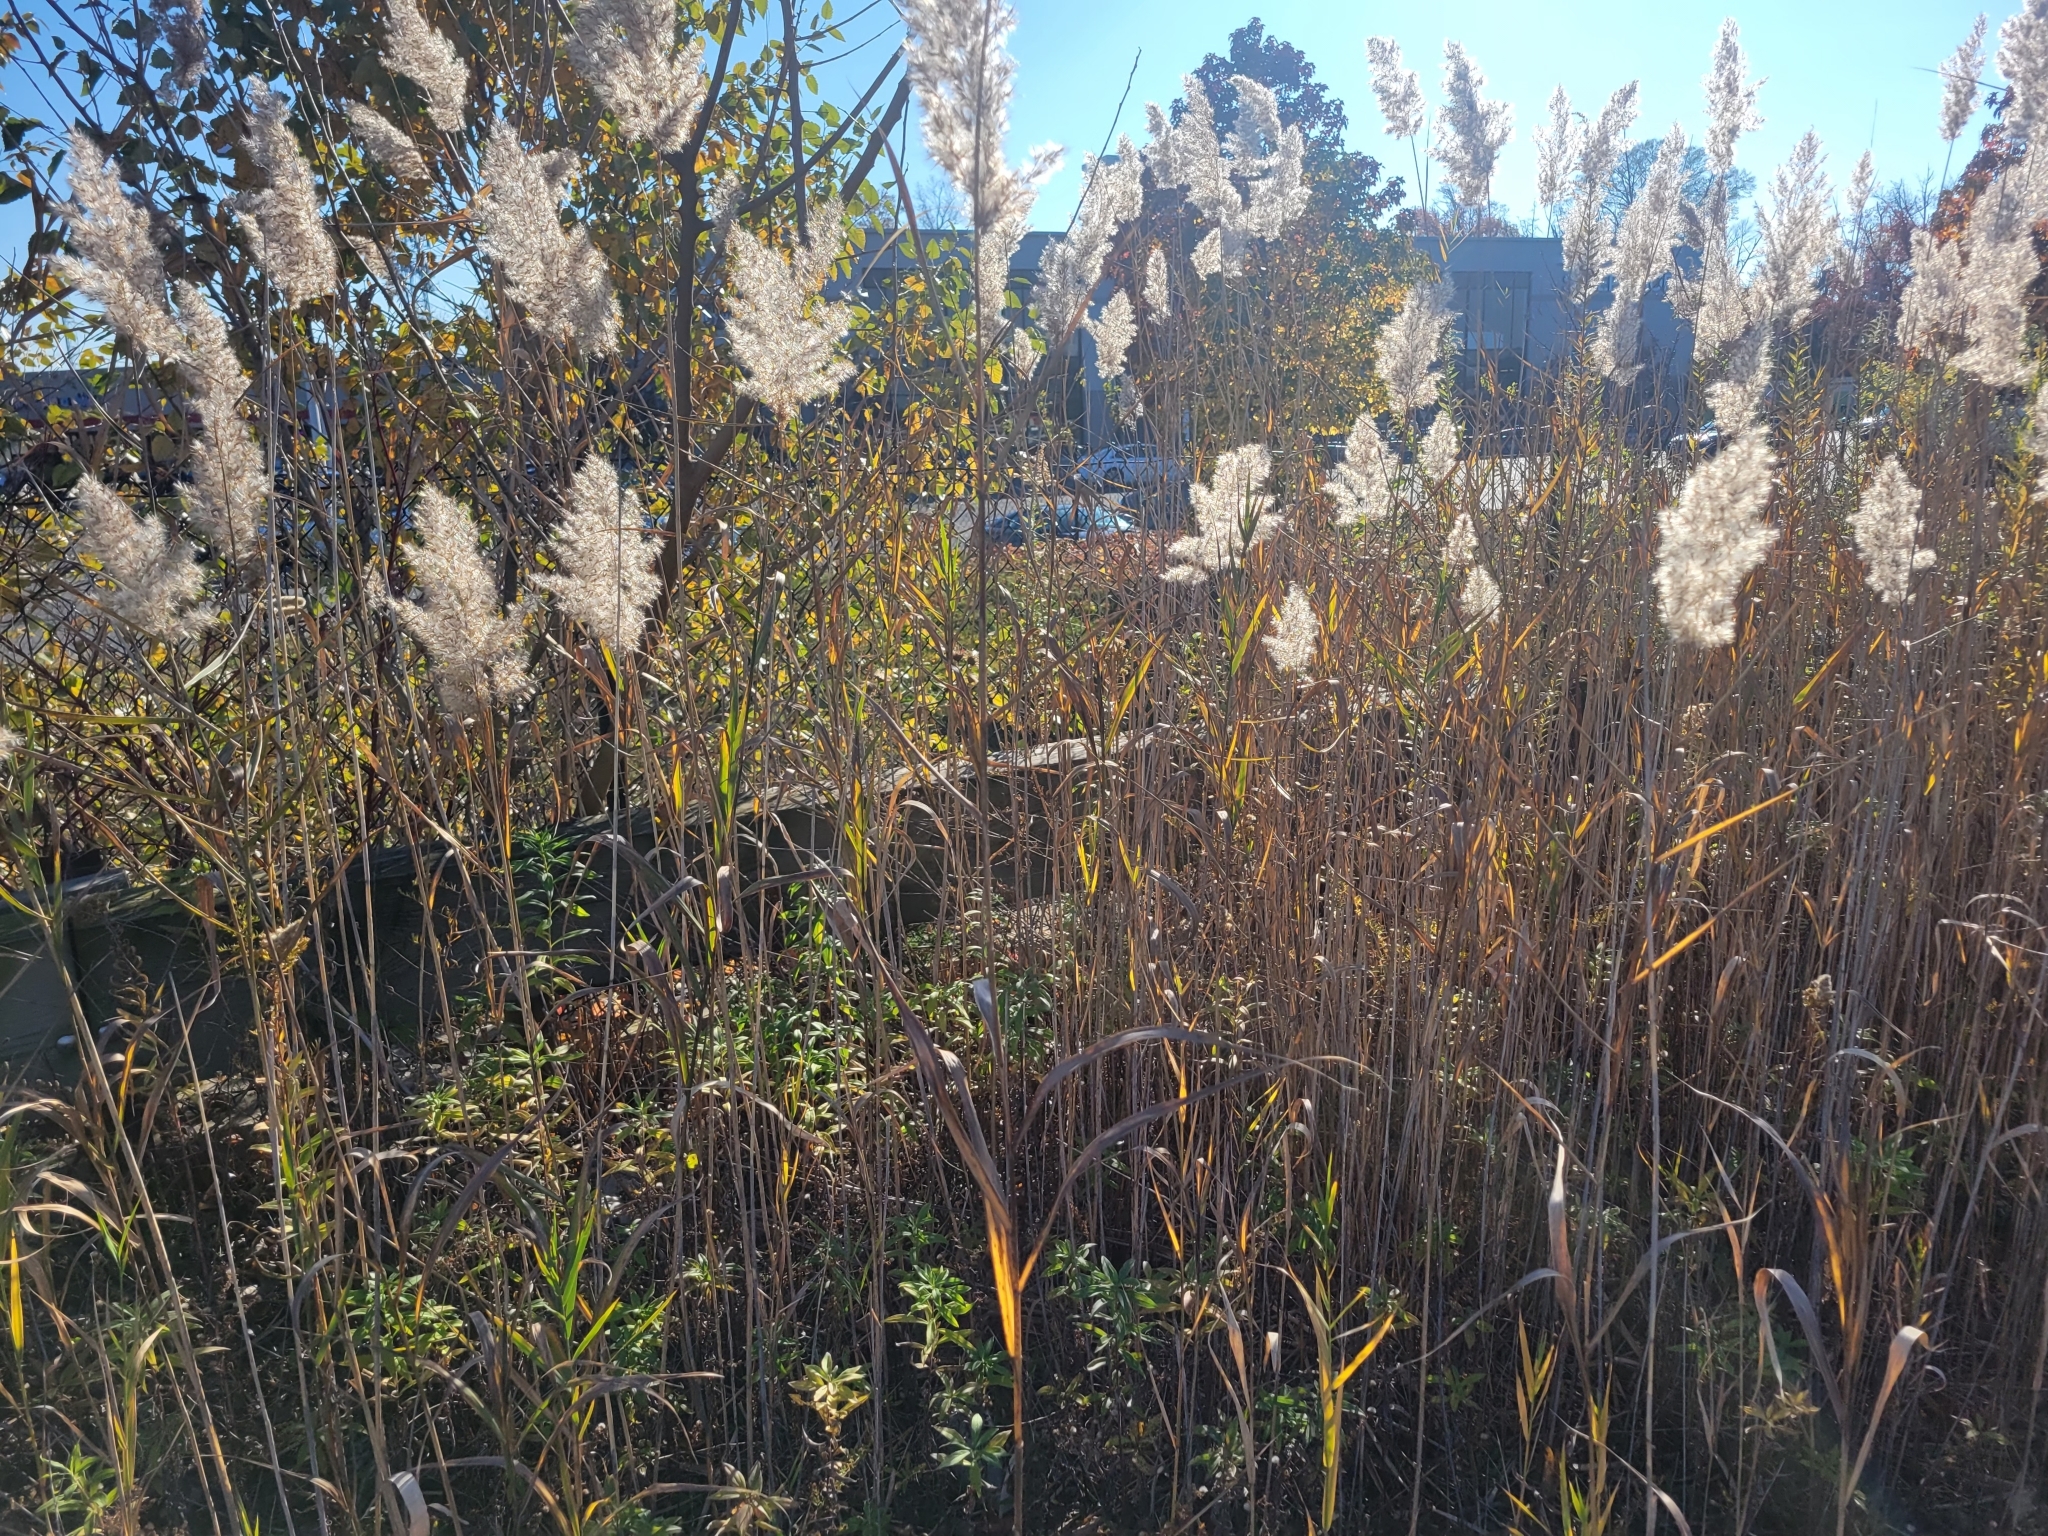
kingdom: Plantae
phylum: Tracheophyta
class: Liliopsida
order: Poales
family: Poaceae
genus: Phragmites
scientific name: Phragmites australis
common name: Common reed
